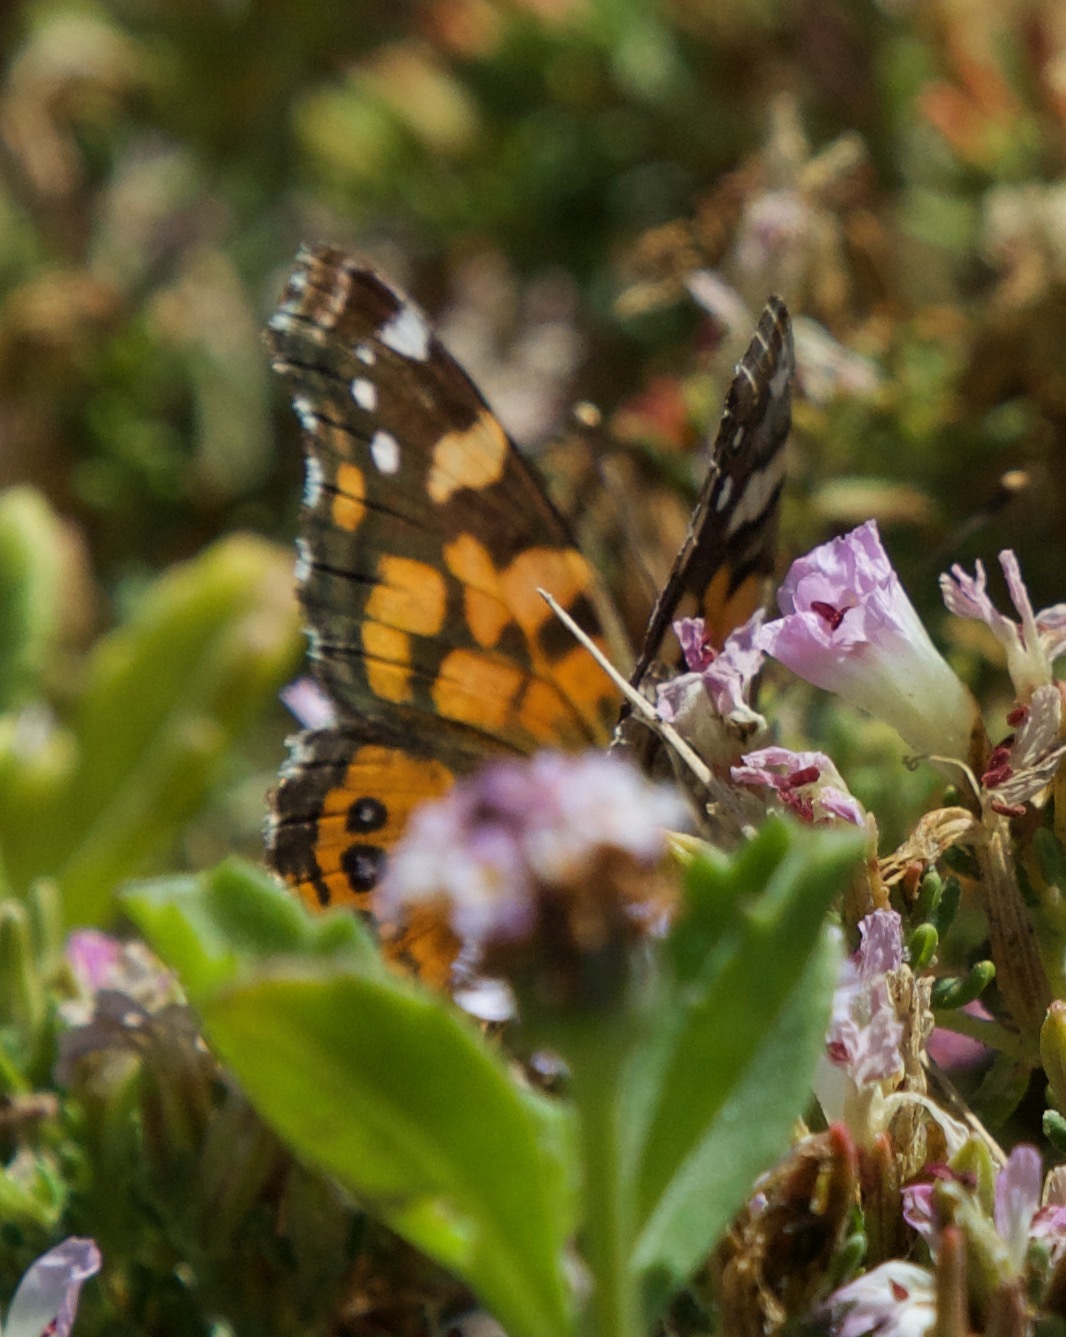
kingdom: Animalia
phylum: Arthropoda
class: Insecta
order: Lepidoptera
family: Nymphalidae
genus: Vanessa
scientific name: Vanessa carye
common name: Subtropical lady
